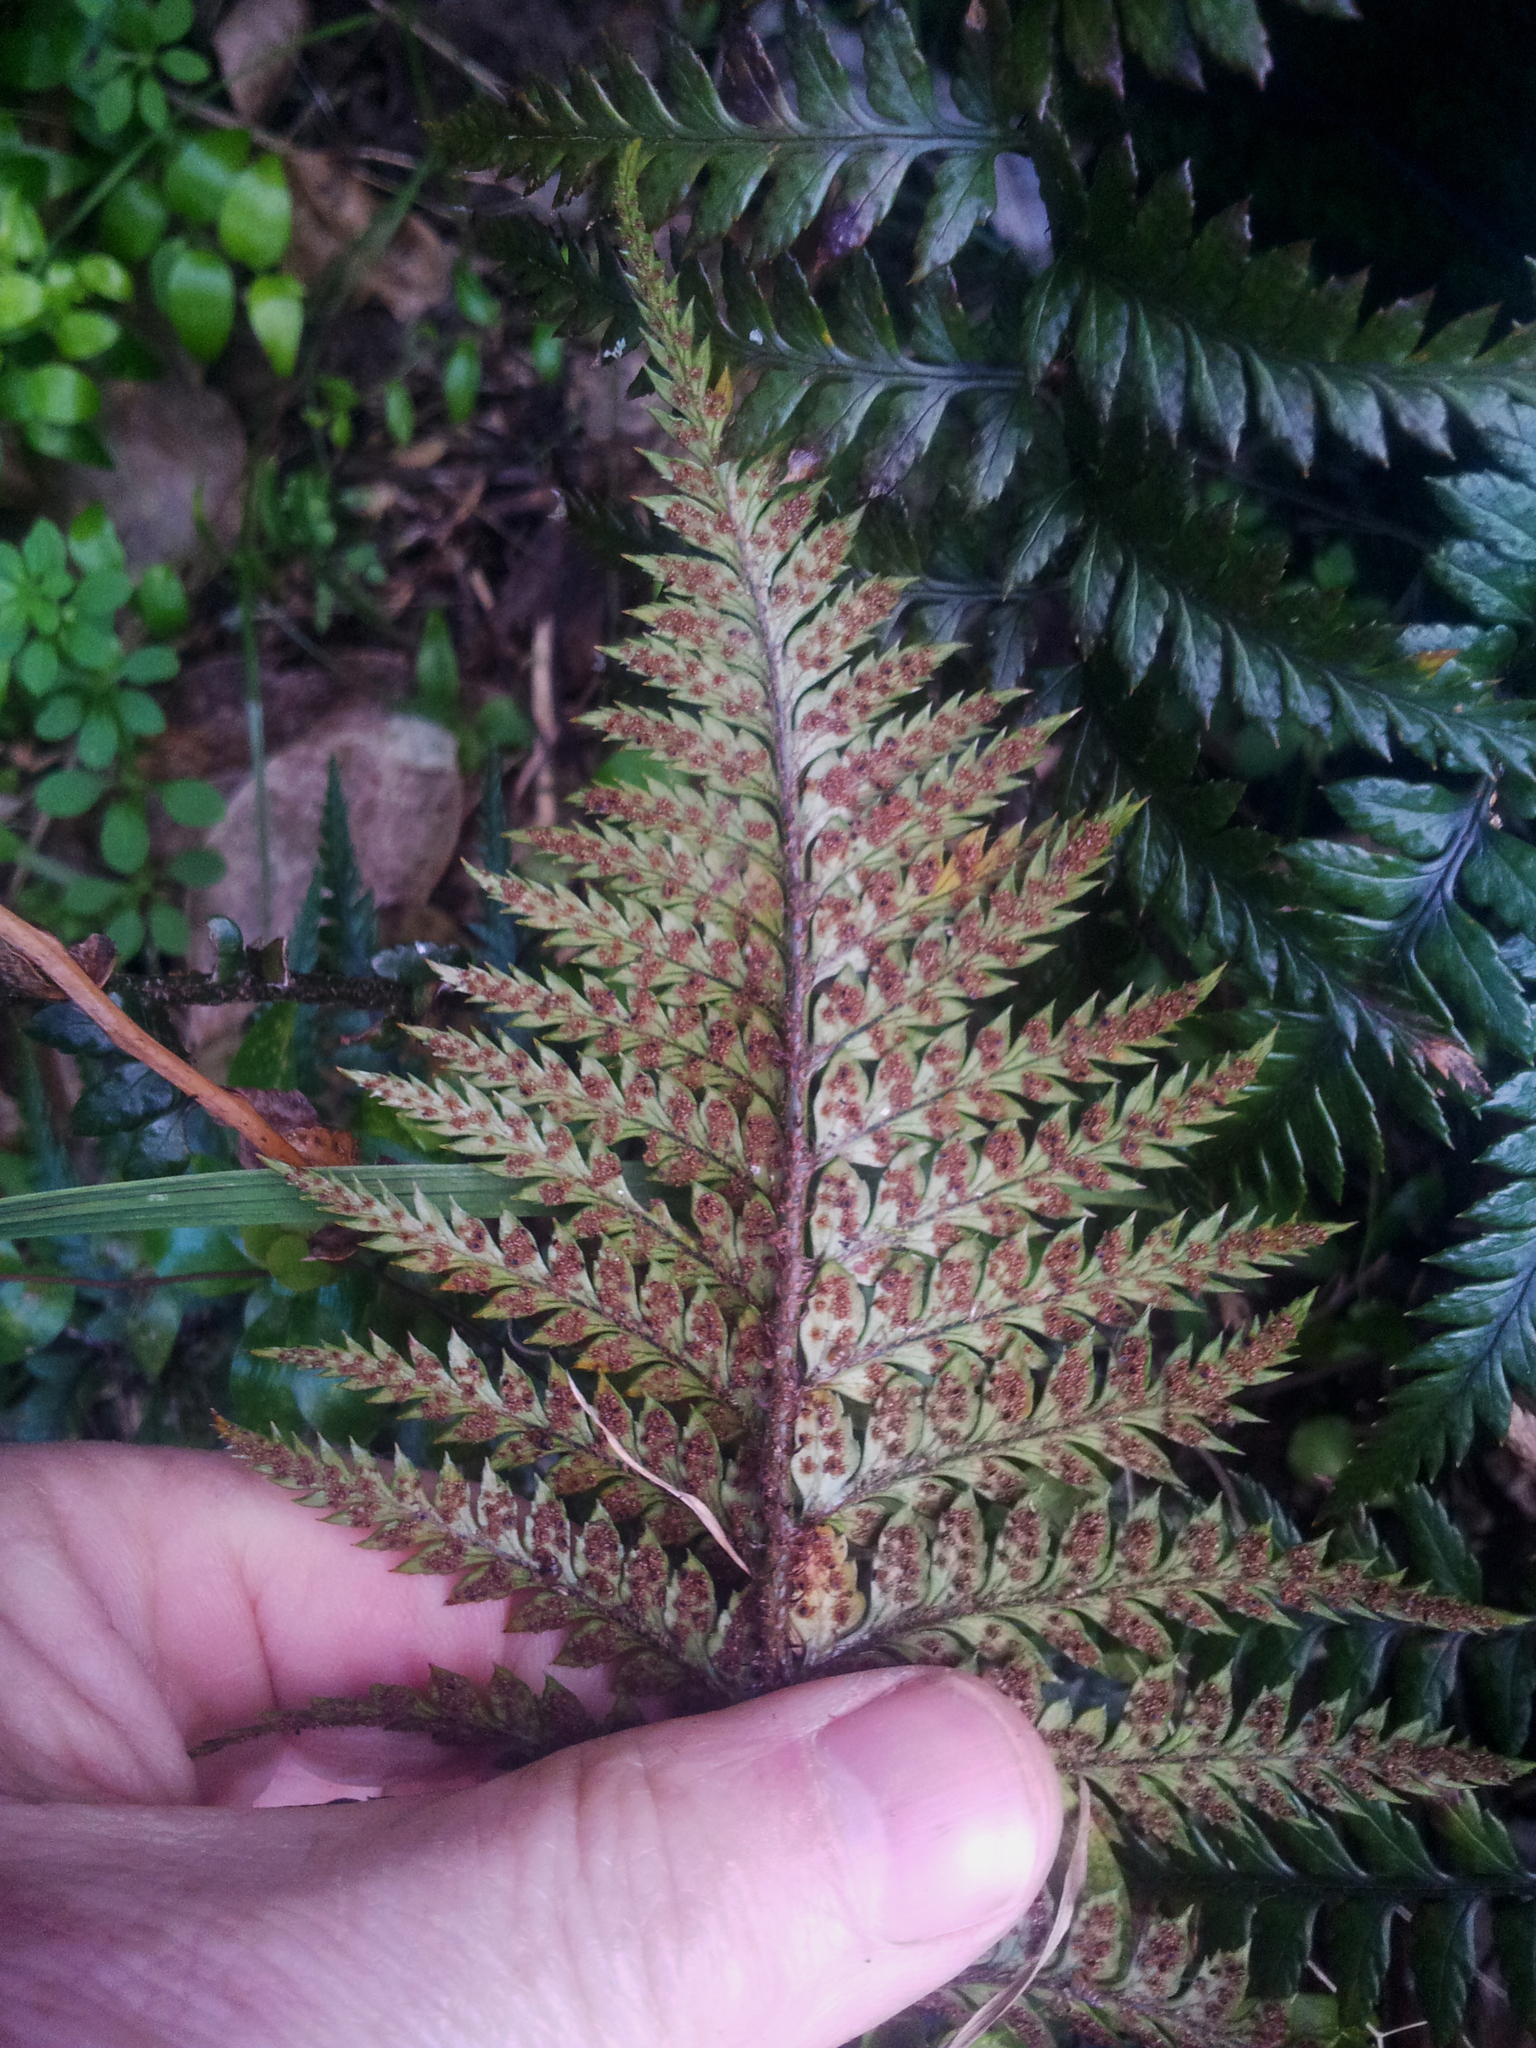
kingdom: Plantae
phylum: Tracheophyta
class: Polypodiopsida
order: Polypodiales
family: Dryopteridaceae
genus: Polystichum
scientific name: Polystichum neozelandicum
